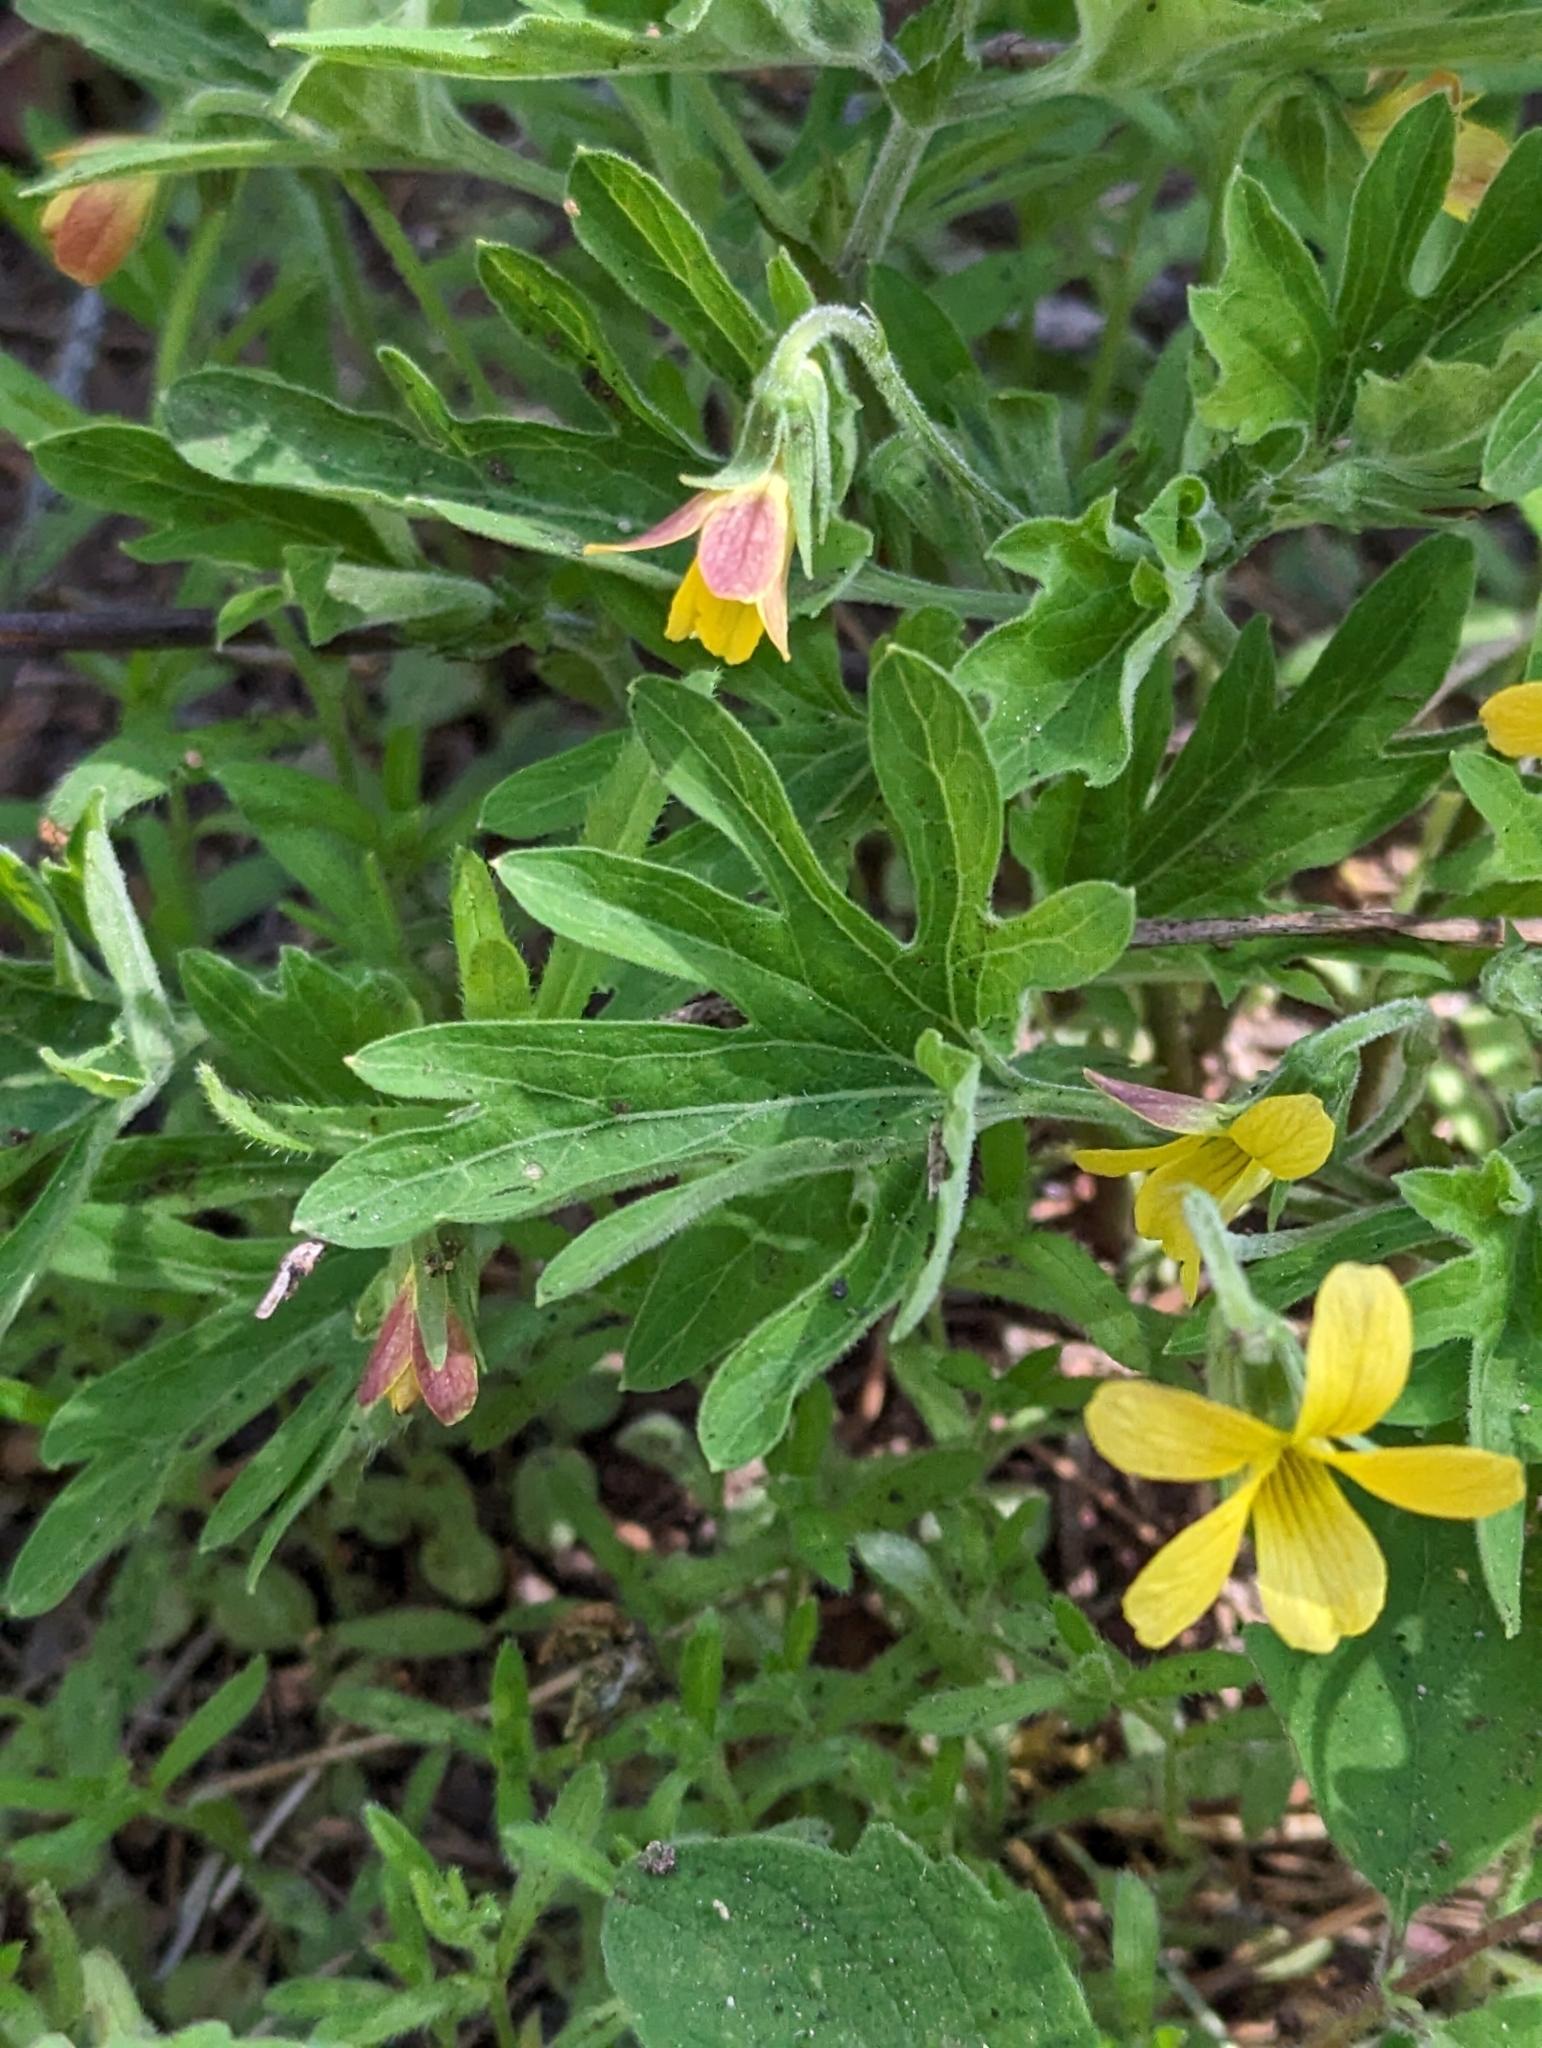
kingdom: Plantae
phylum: Tracheophyta
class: Magnoliopsida
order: Malpighiales
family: Violaceae
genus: Viola
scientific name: Viola lobata
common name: Pine violet
